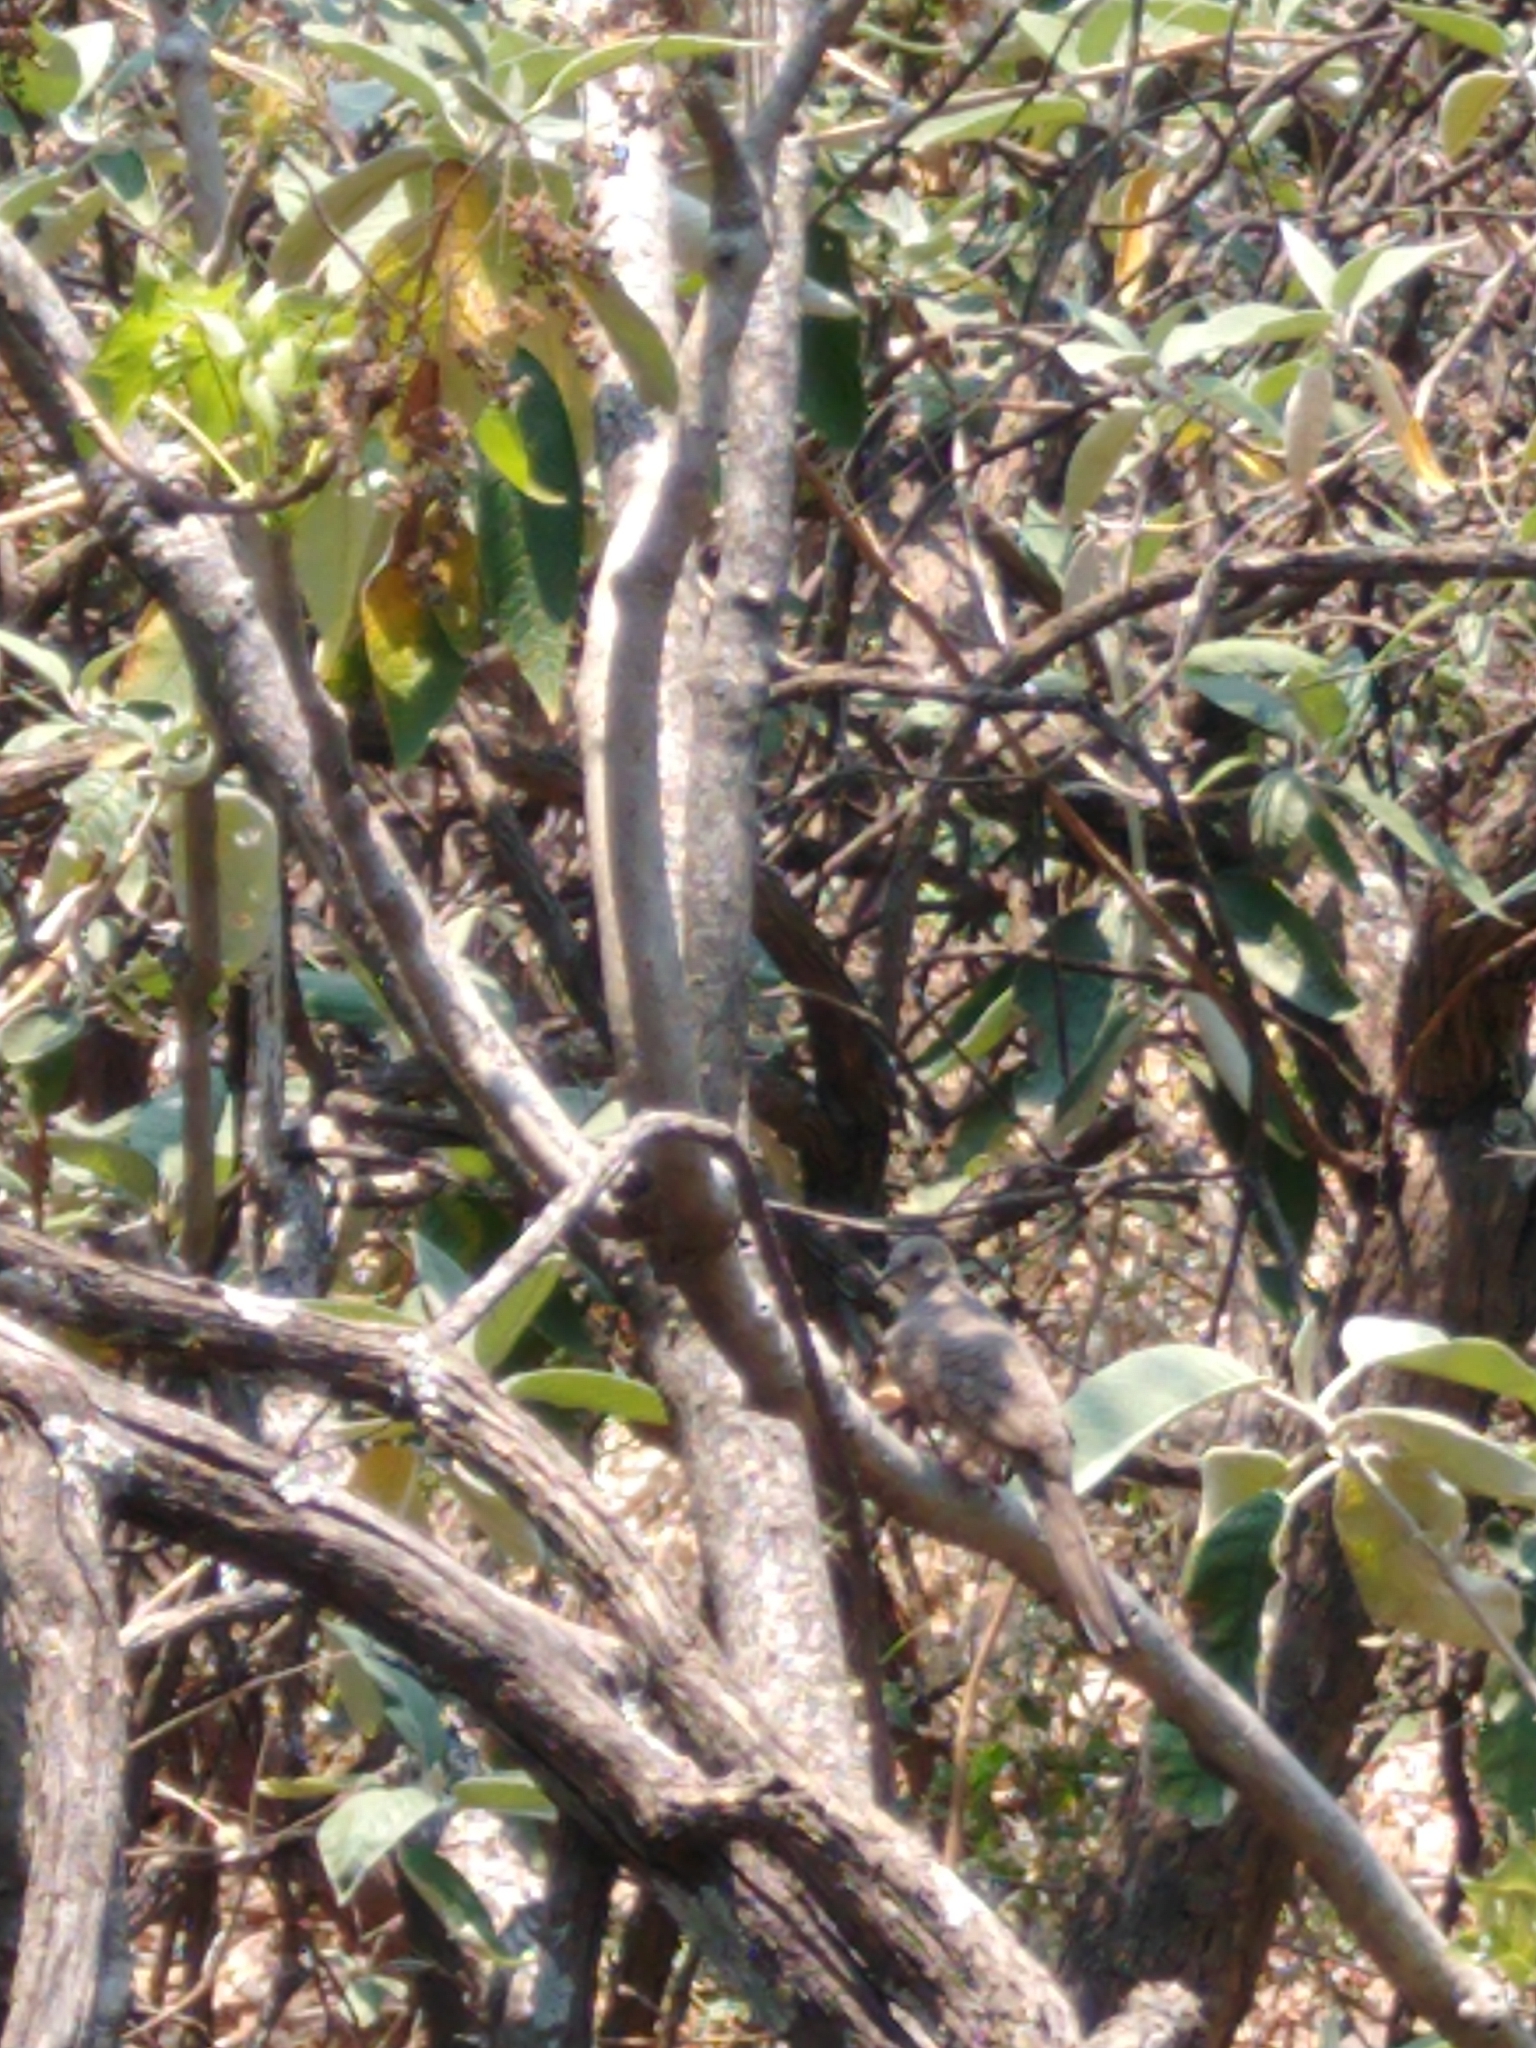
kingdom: Animalia
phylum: Chordata
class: Aves
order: Columbiformes
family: Columbidae
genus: Columbina
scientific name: Columbina inca
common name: Inca dove
